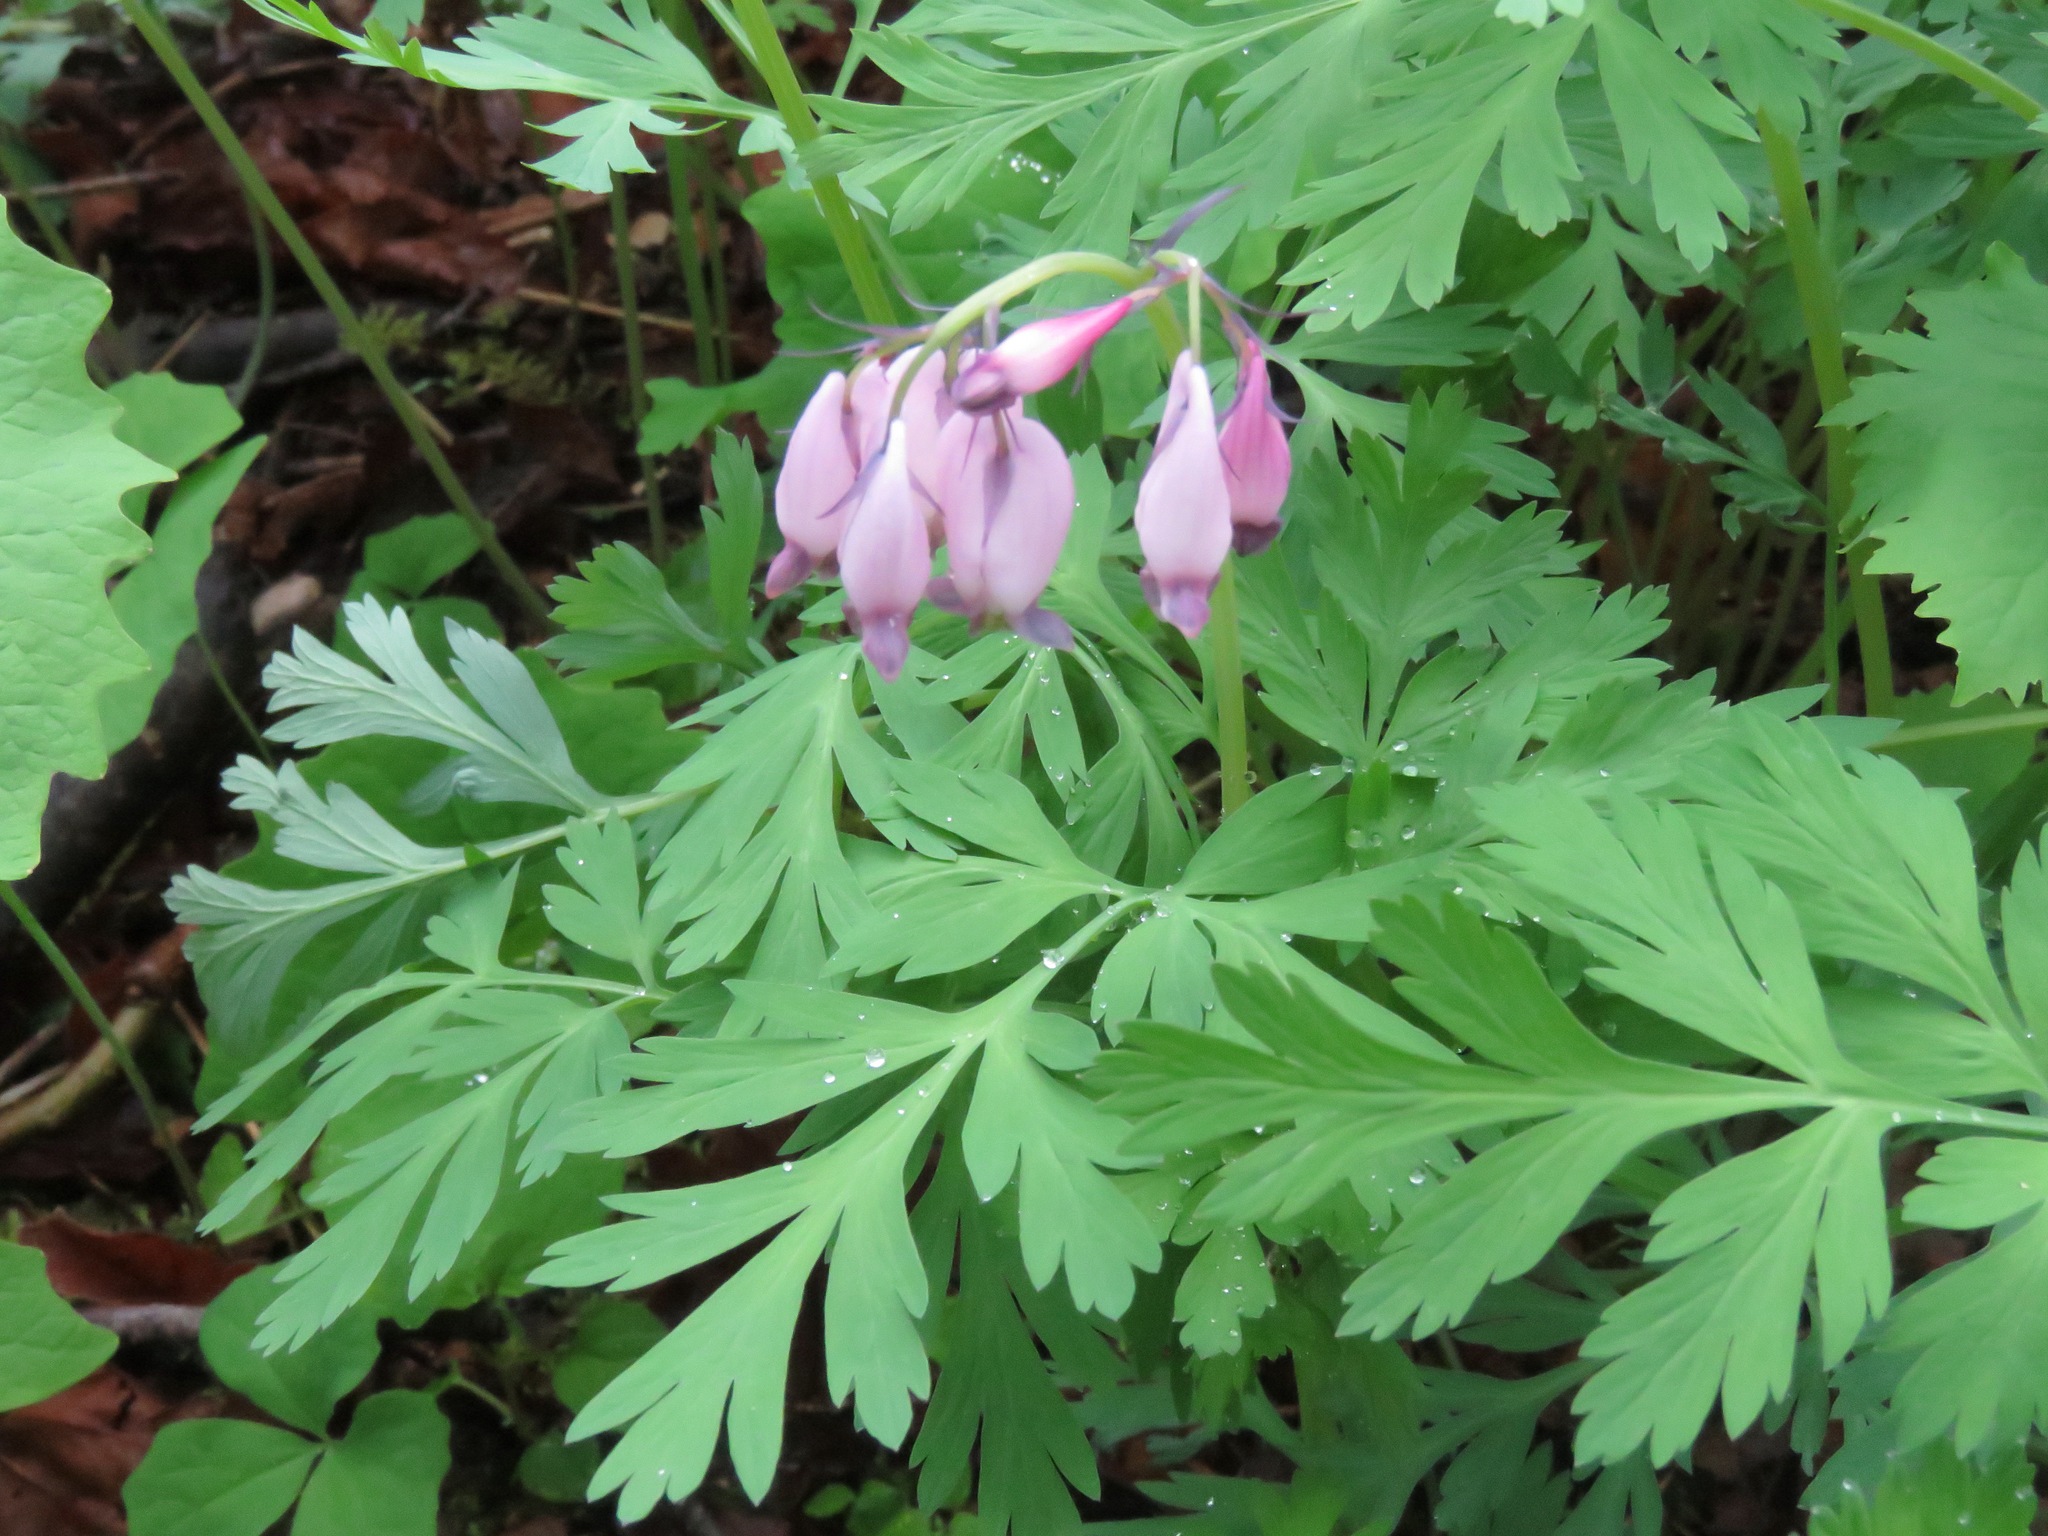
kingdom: Plantae
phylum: Tracheophyta
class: Magnoliopsida
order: Ranunculales
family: Papaveraceae
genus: Dicentra
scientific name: Dicentra formosa
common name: Bleeding-heart
